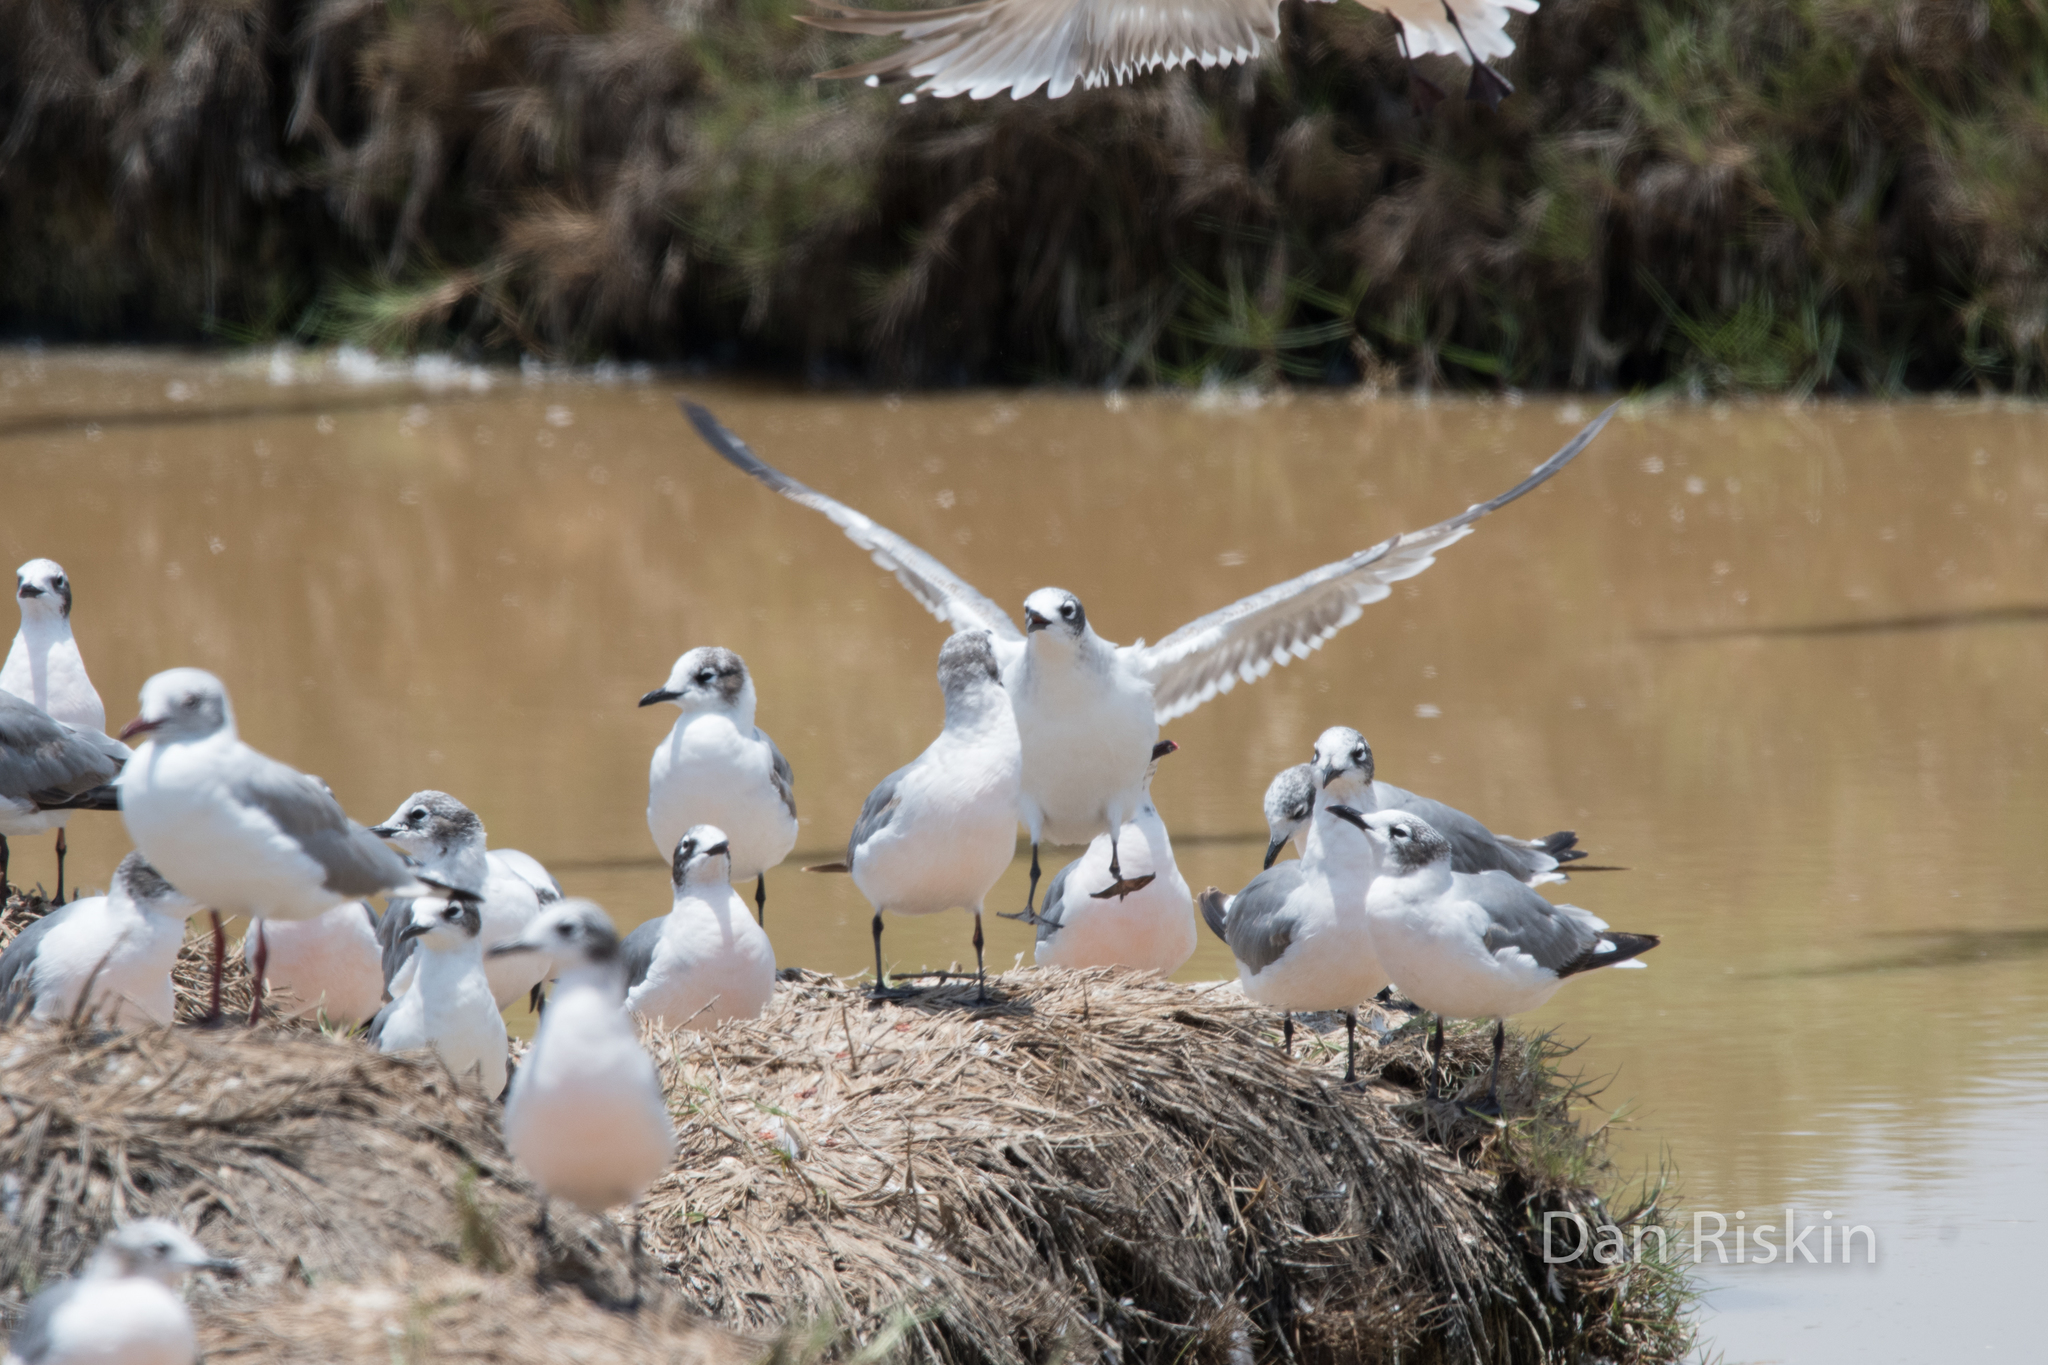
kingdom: Animalia
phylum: Chordata
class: Aves
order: Charadriiformes
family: Laridae
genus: Leucophaeus
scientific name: Leucophaeus pipixcan
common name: Franklin's gull
